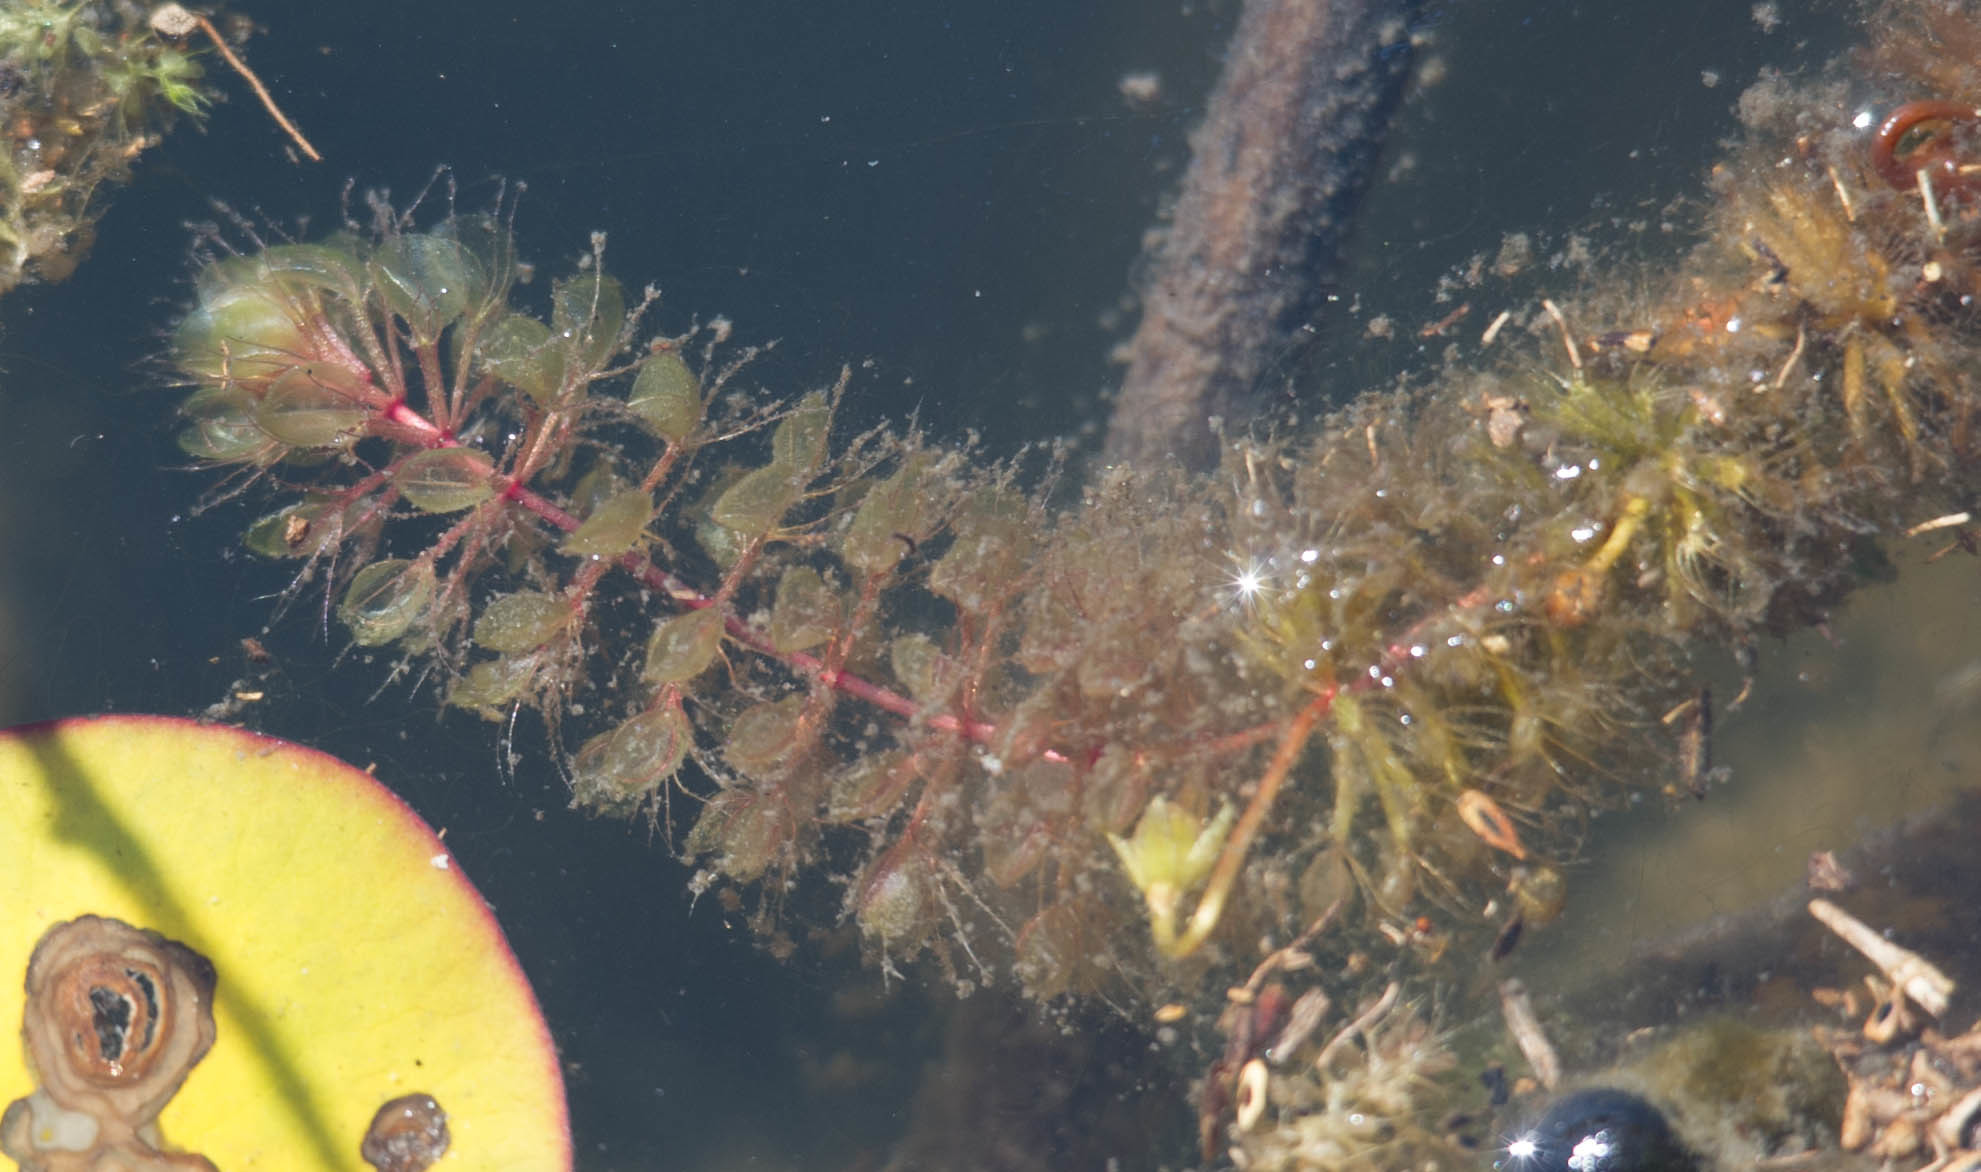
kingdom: Plantae
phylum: Tracheophyta
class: Magnoliopsida
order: Caryophyllales
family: Droseraceae
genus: Aldrovanda
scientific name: Aldrovanda vesiculosa
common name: Waterwheel plant
